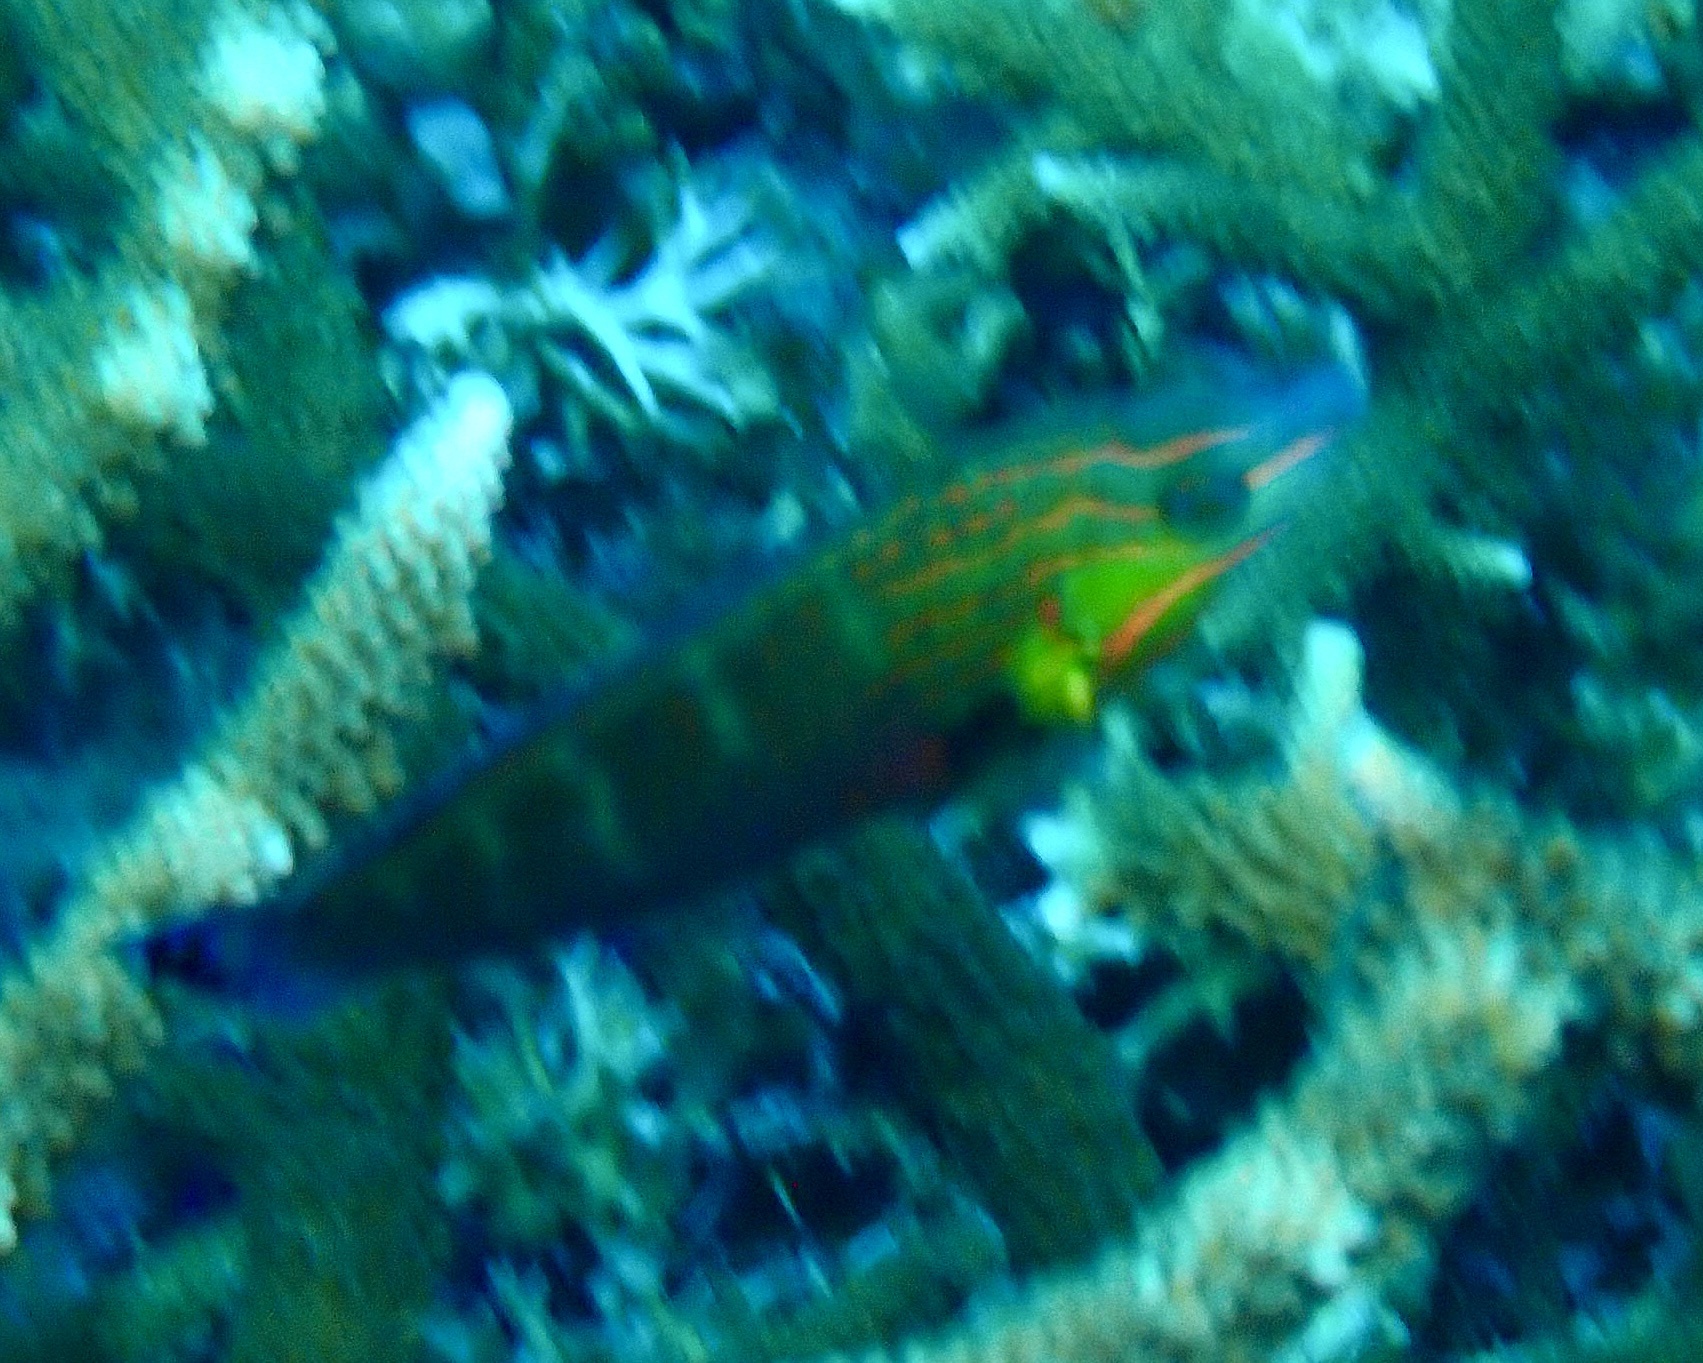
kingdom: Animalia
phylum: Chordata
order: Perciformes
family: Labridae
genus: Halichoeres
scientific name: Halichoeres melanurus
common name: Hoeven's wrasse
